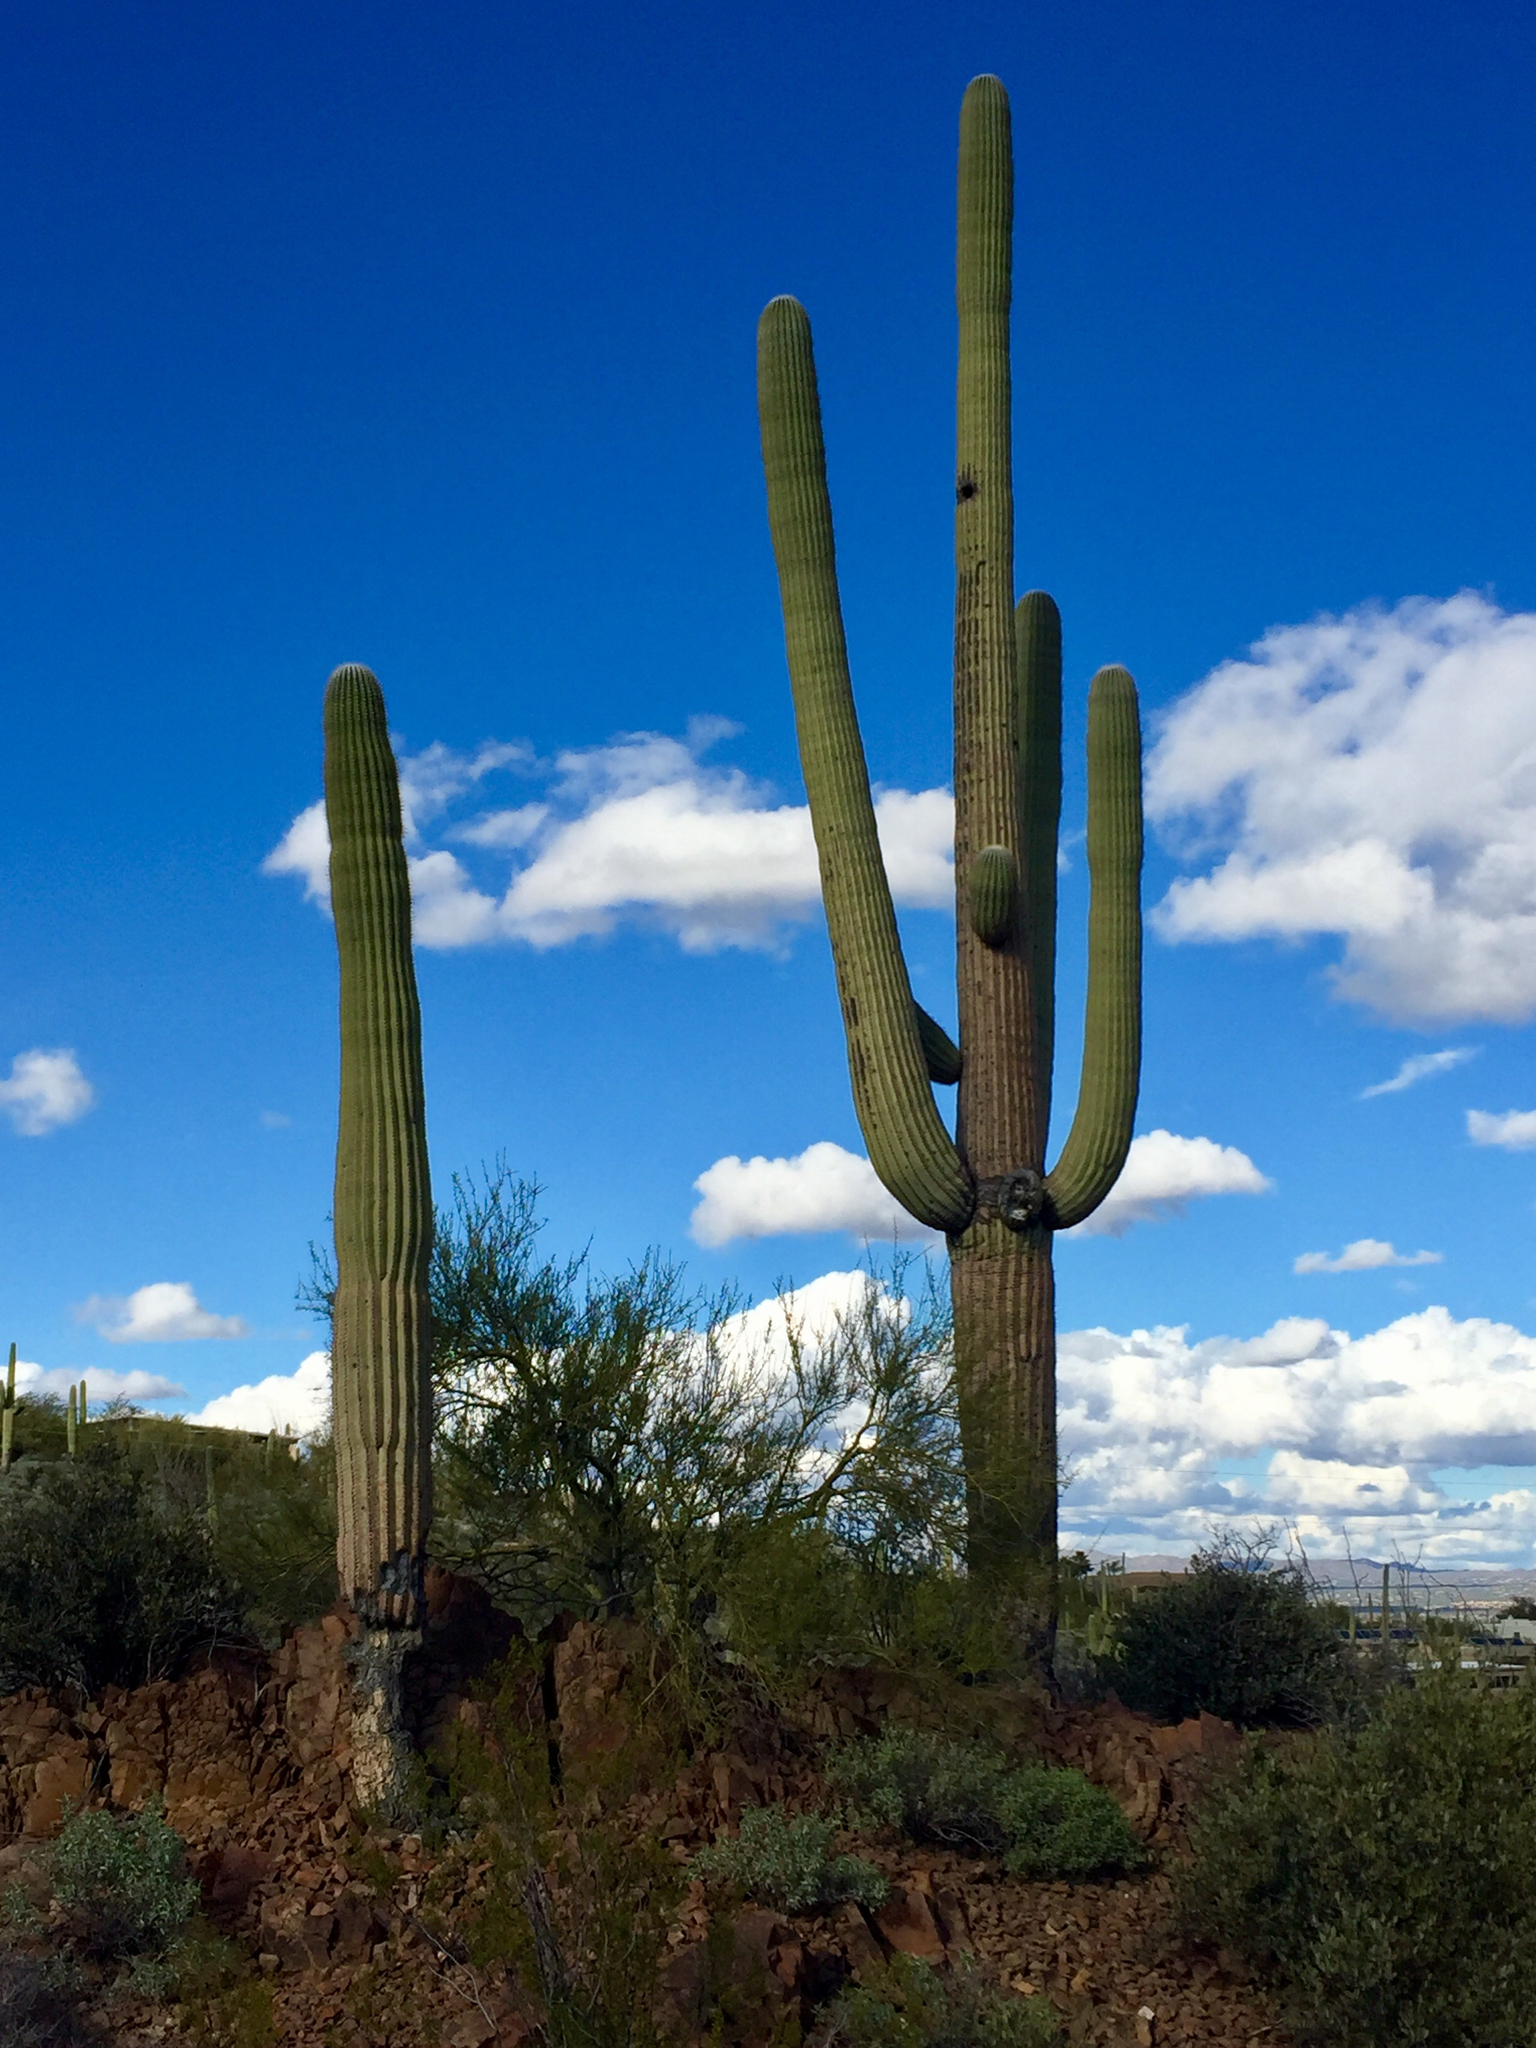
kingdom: Plantae
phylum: Tracheophyta
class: Magnoliopsida
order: Caryophyllales
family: Cactaceae
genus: Carnegiea
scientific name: Carnegiea gigantea
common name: Saguaro
